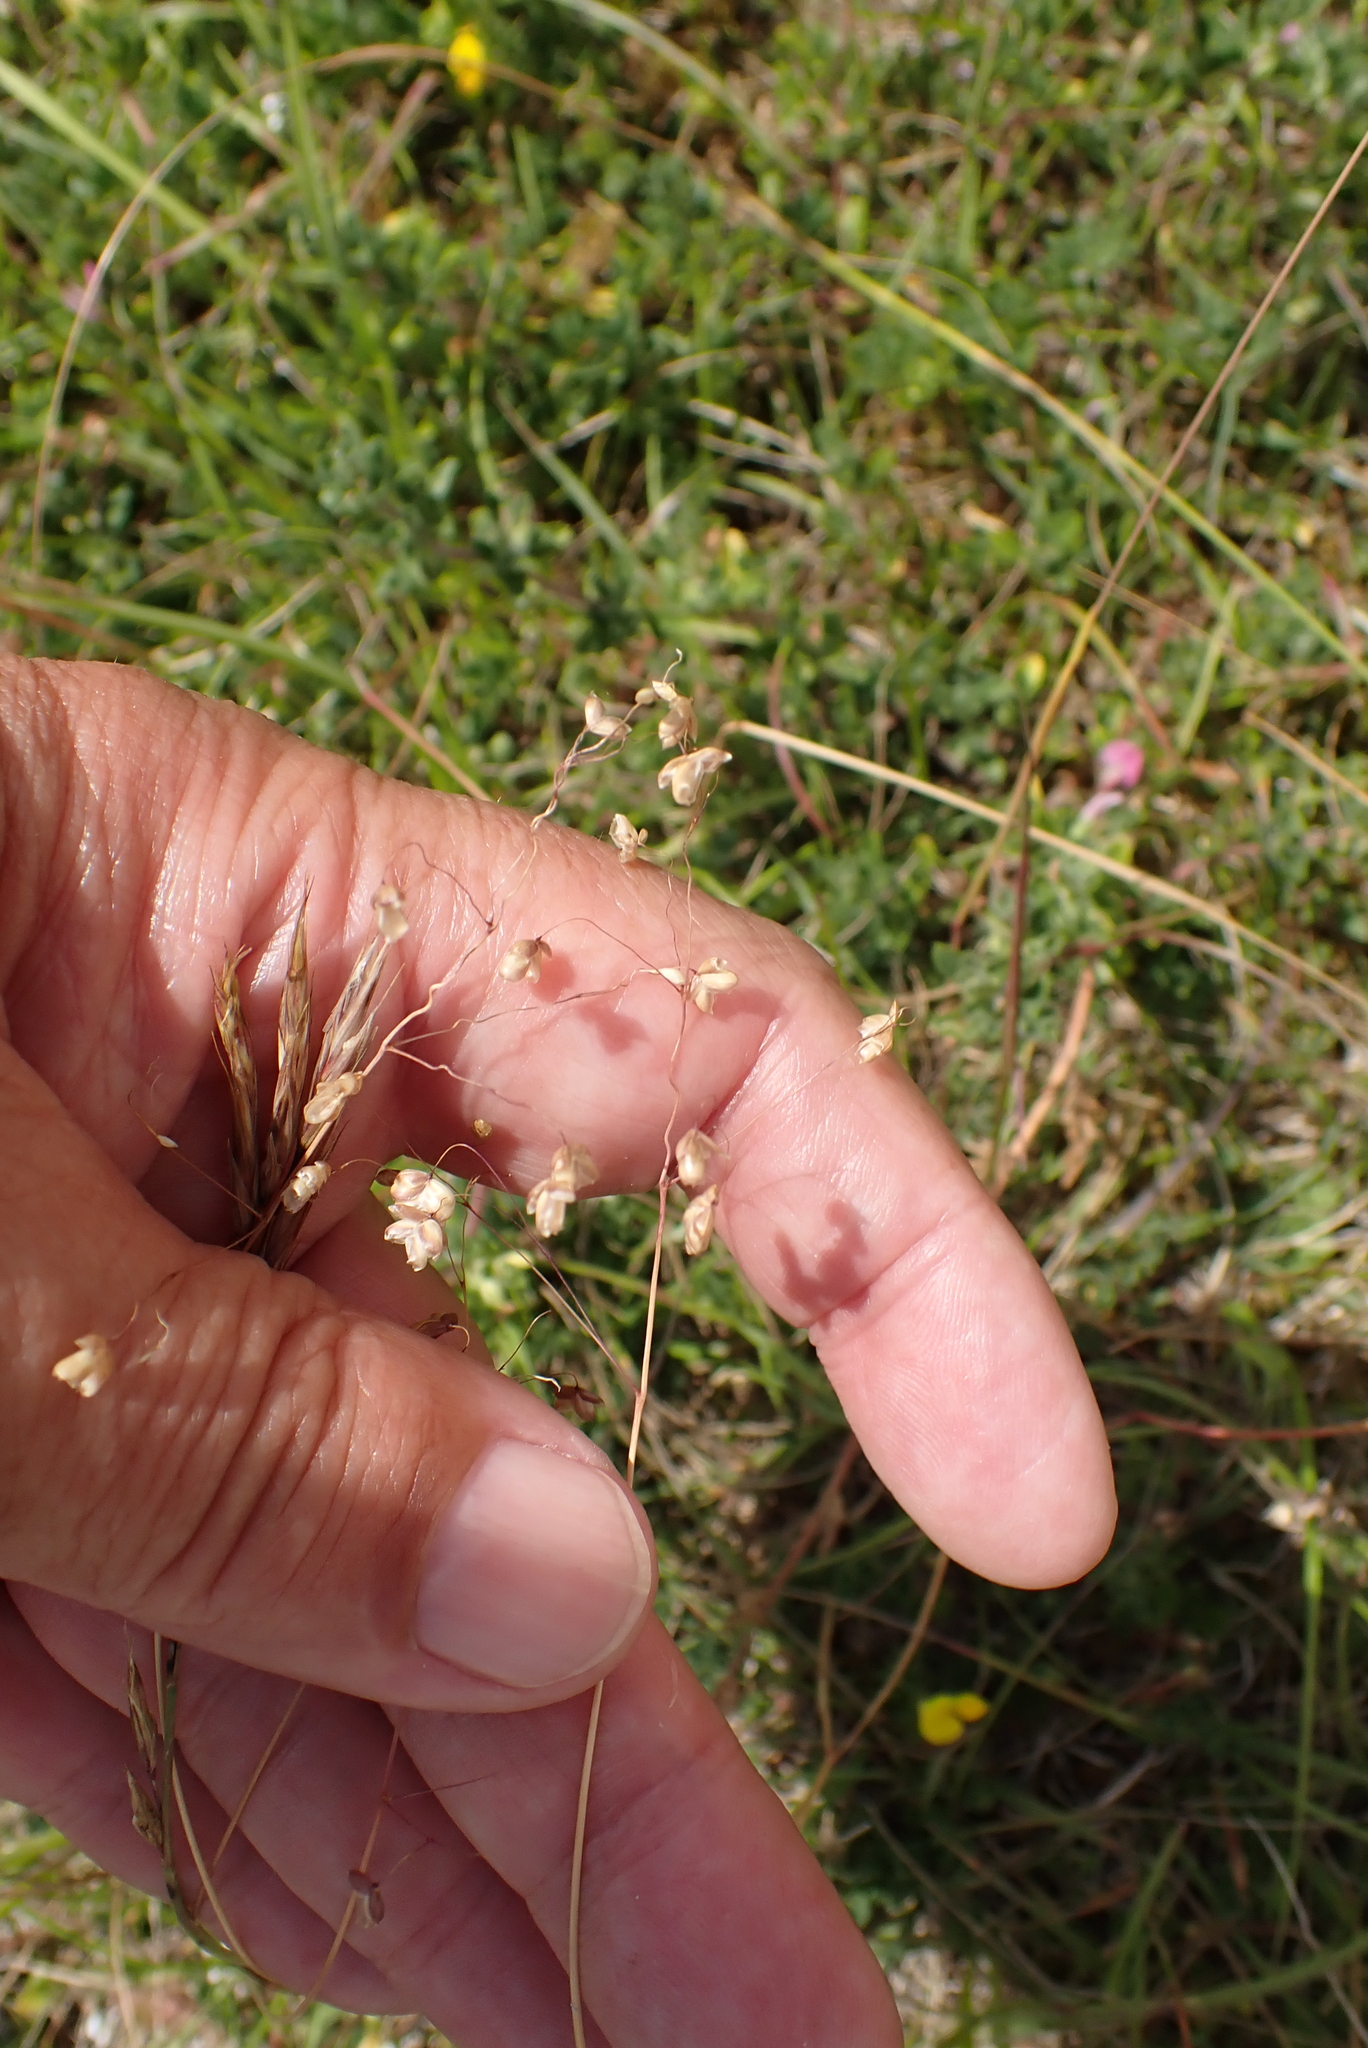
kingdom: Plantae
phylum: Tracheophyta
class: Liliopsida
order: Poales
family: Poaceae
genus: Briza
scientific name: Briza media
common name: Quaking grass
